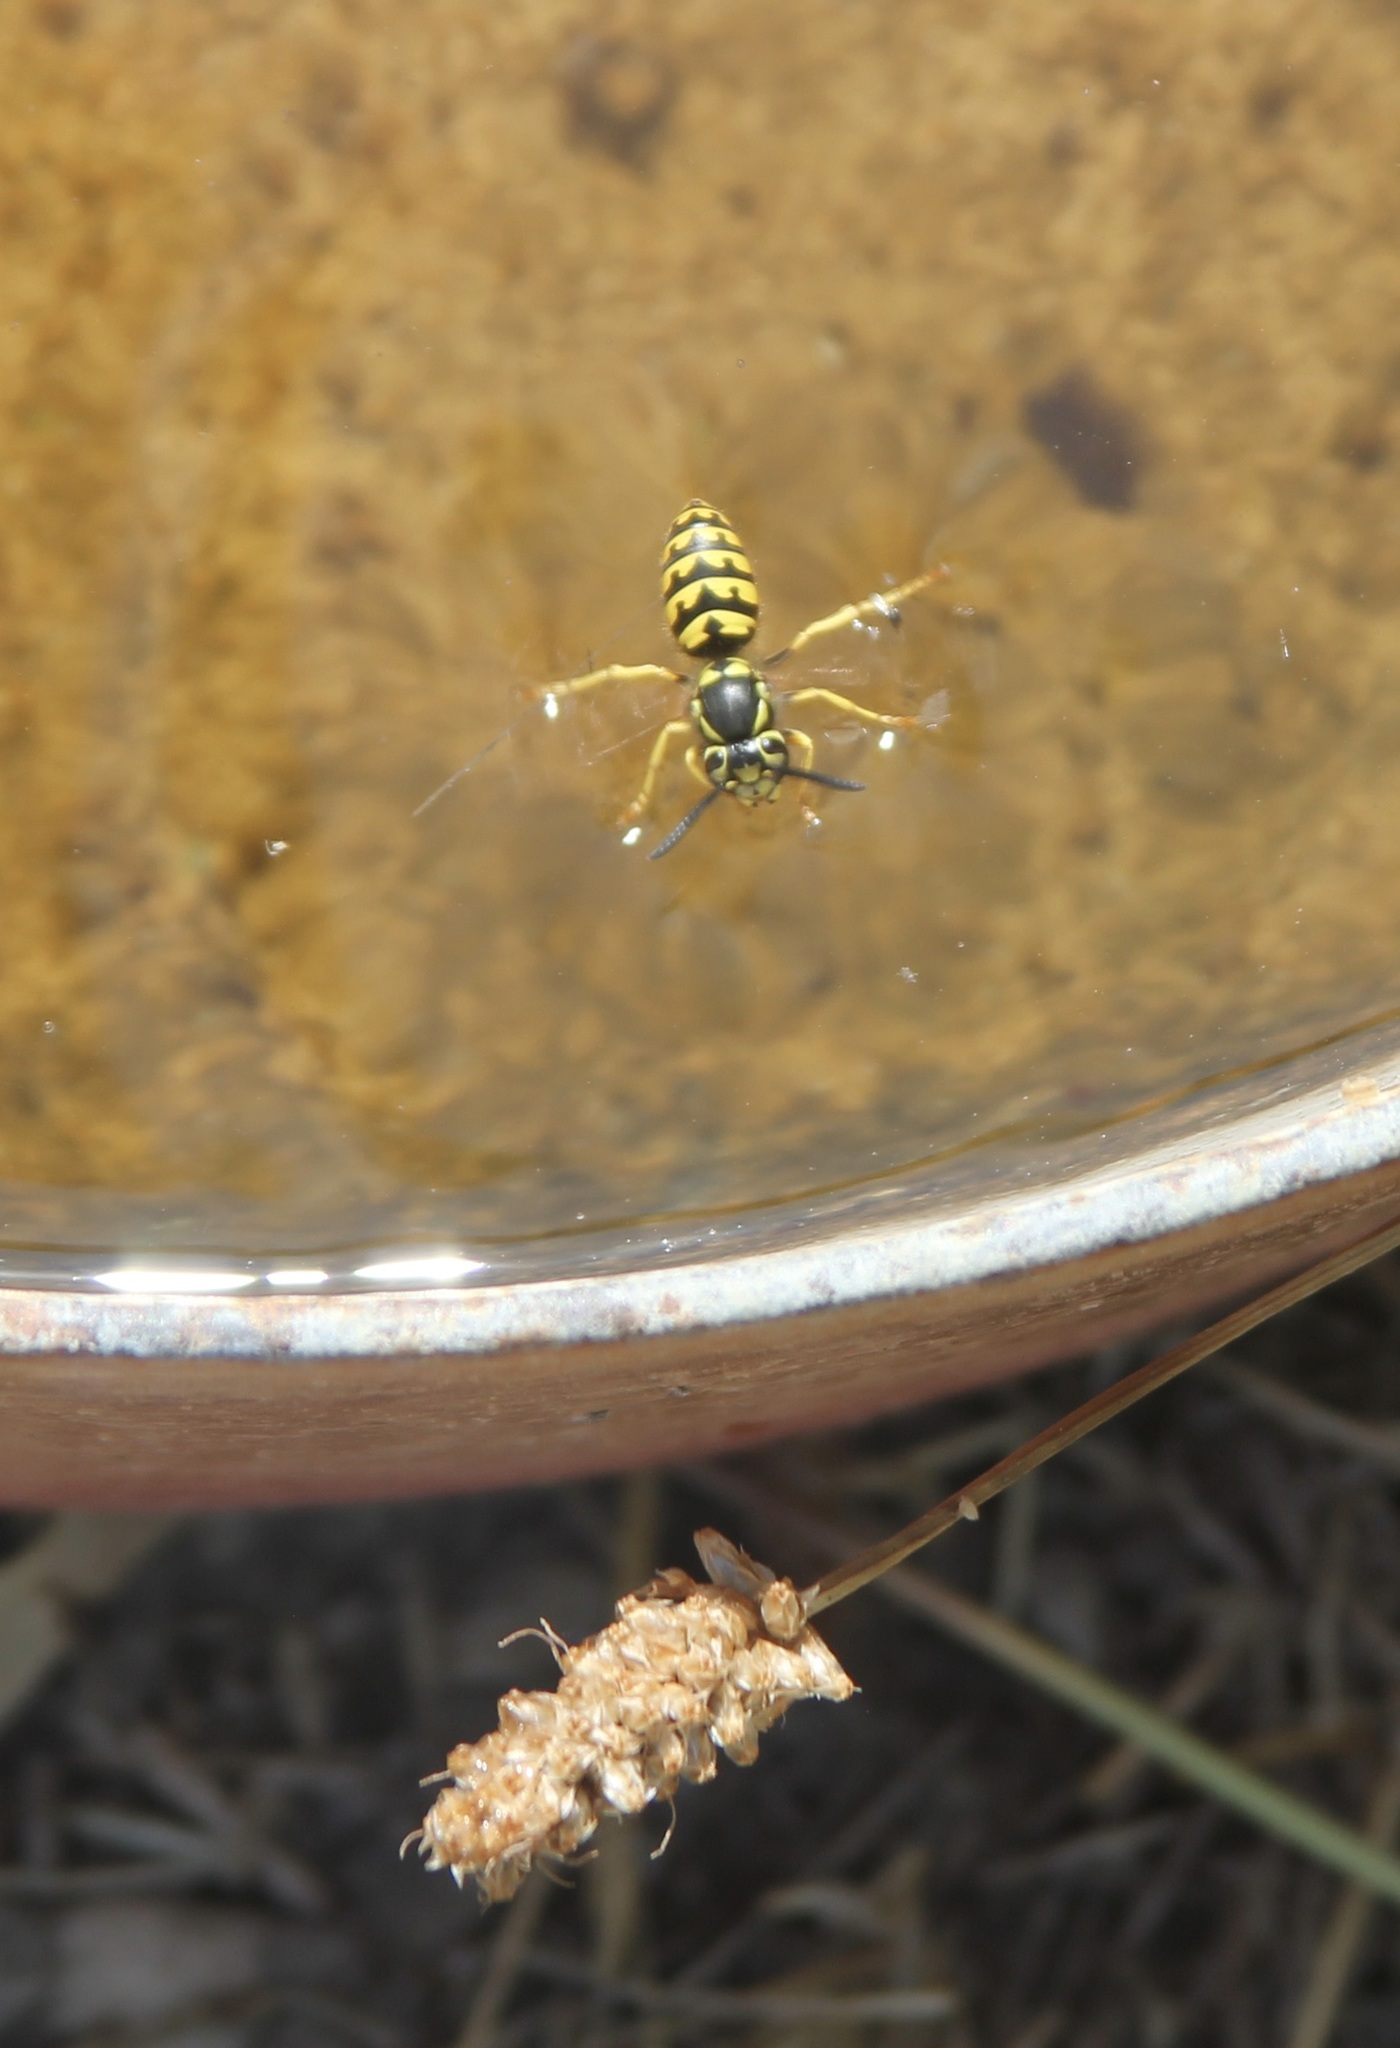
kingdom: Animalia
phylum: Arthropoda
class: Insecta
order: Hymenoptera
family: Vespidae
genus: Vespula
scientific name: Vespula pensylvanica
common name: Western yellowjacket
